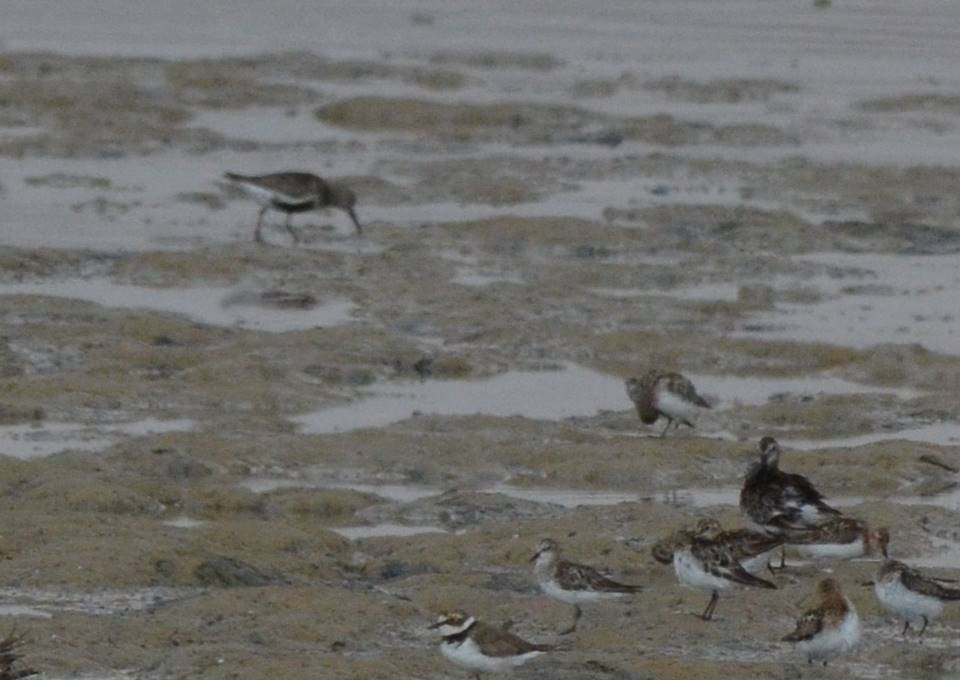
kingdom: Animalia
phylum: Chordata
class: Aves
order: Charadriiformes
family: Scolopacidae
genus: Calidris
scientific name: Calidris alpina
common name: Dunlin
